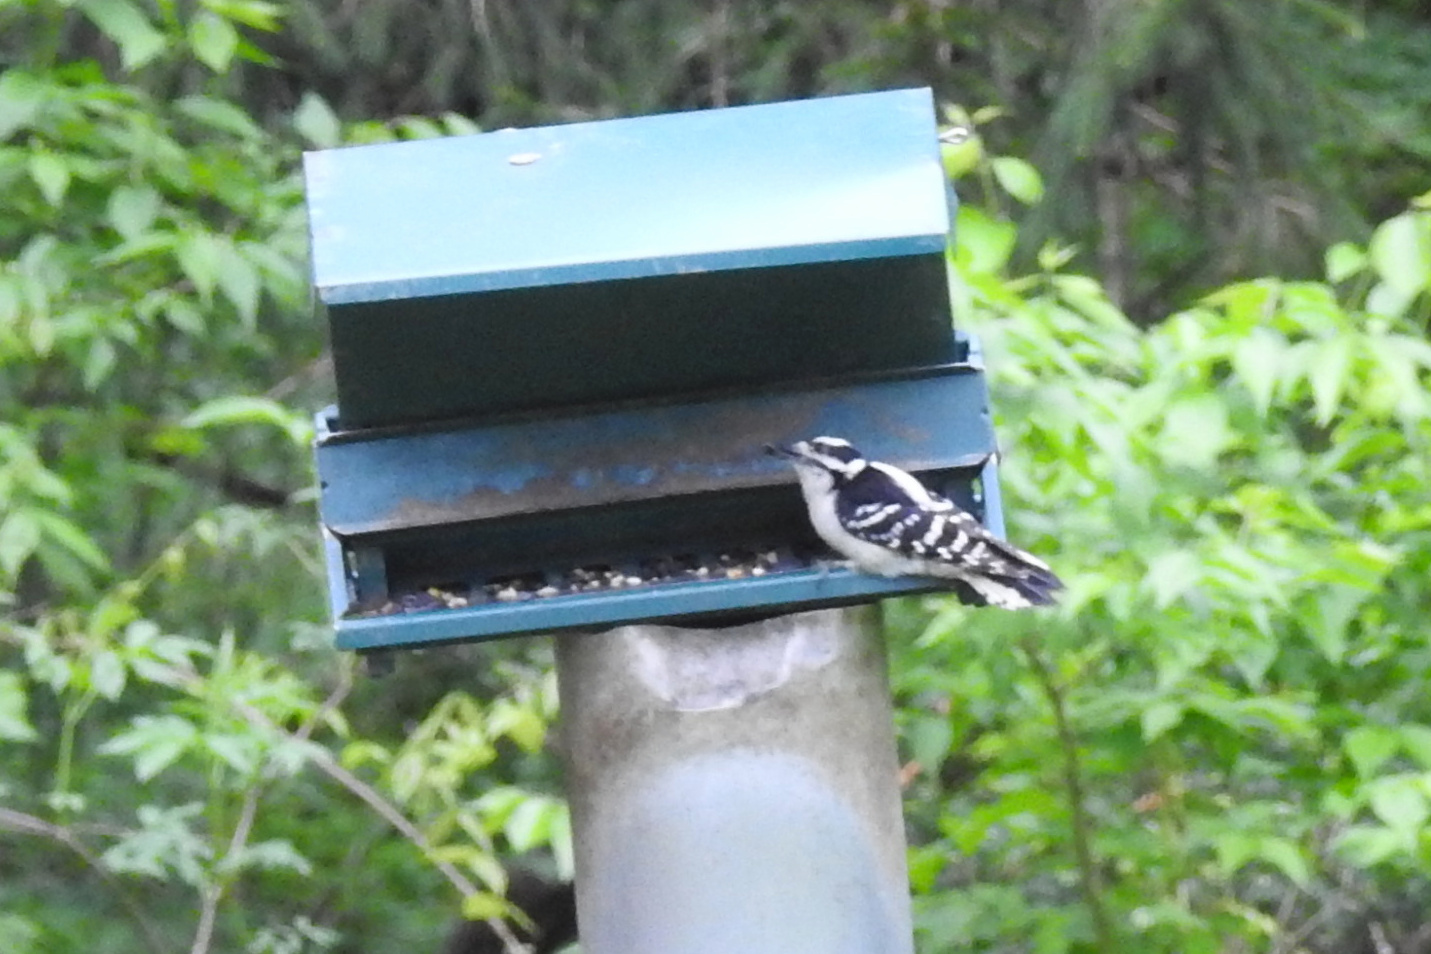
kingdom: Animalia
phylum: Chordata
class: Aves
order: Piciformes
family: Picidae
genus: Dryobates
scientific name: Dryobates pubescens
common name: Downy woodpecker
